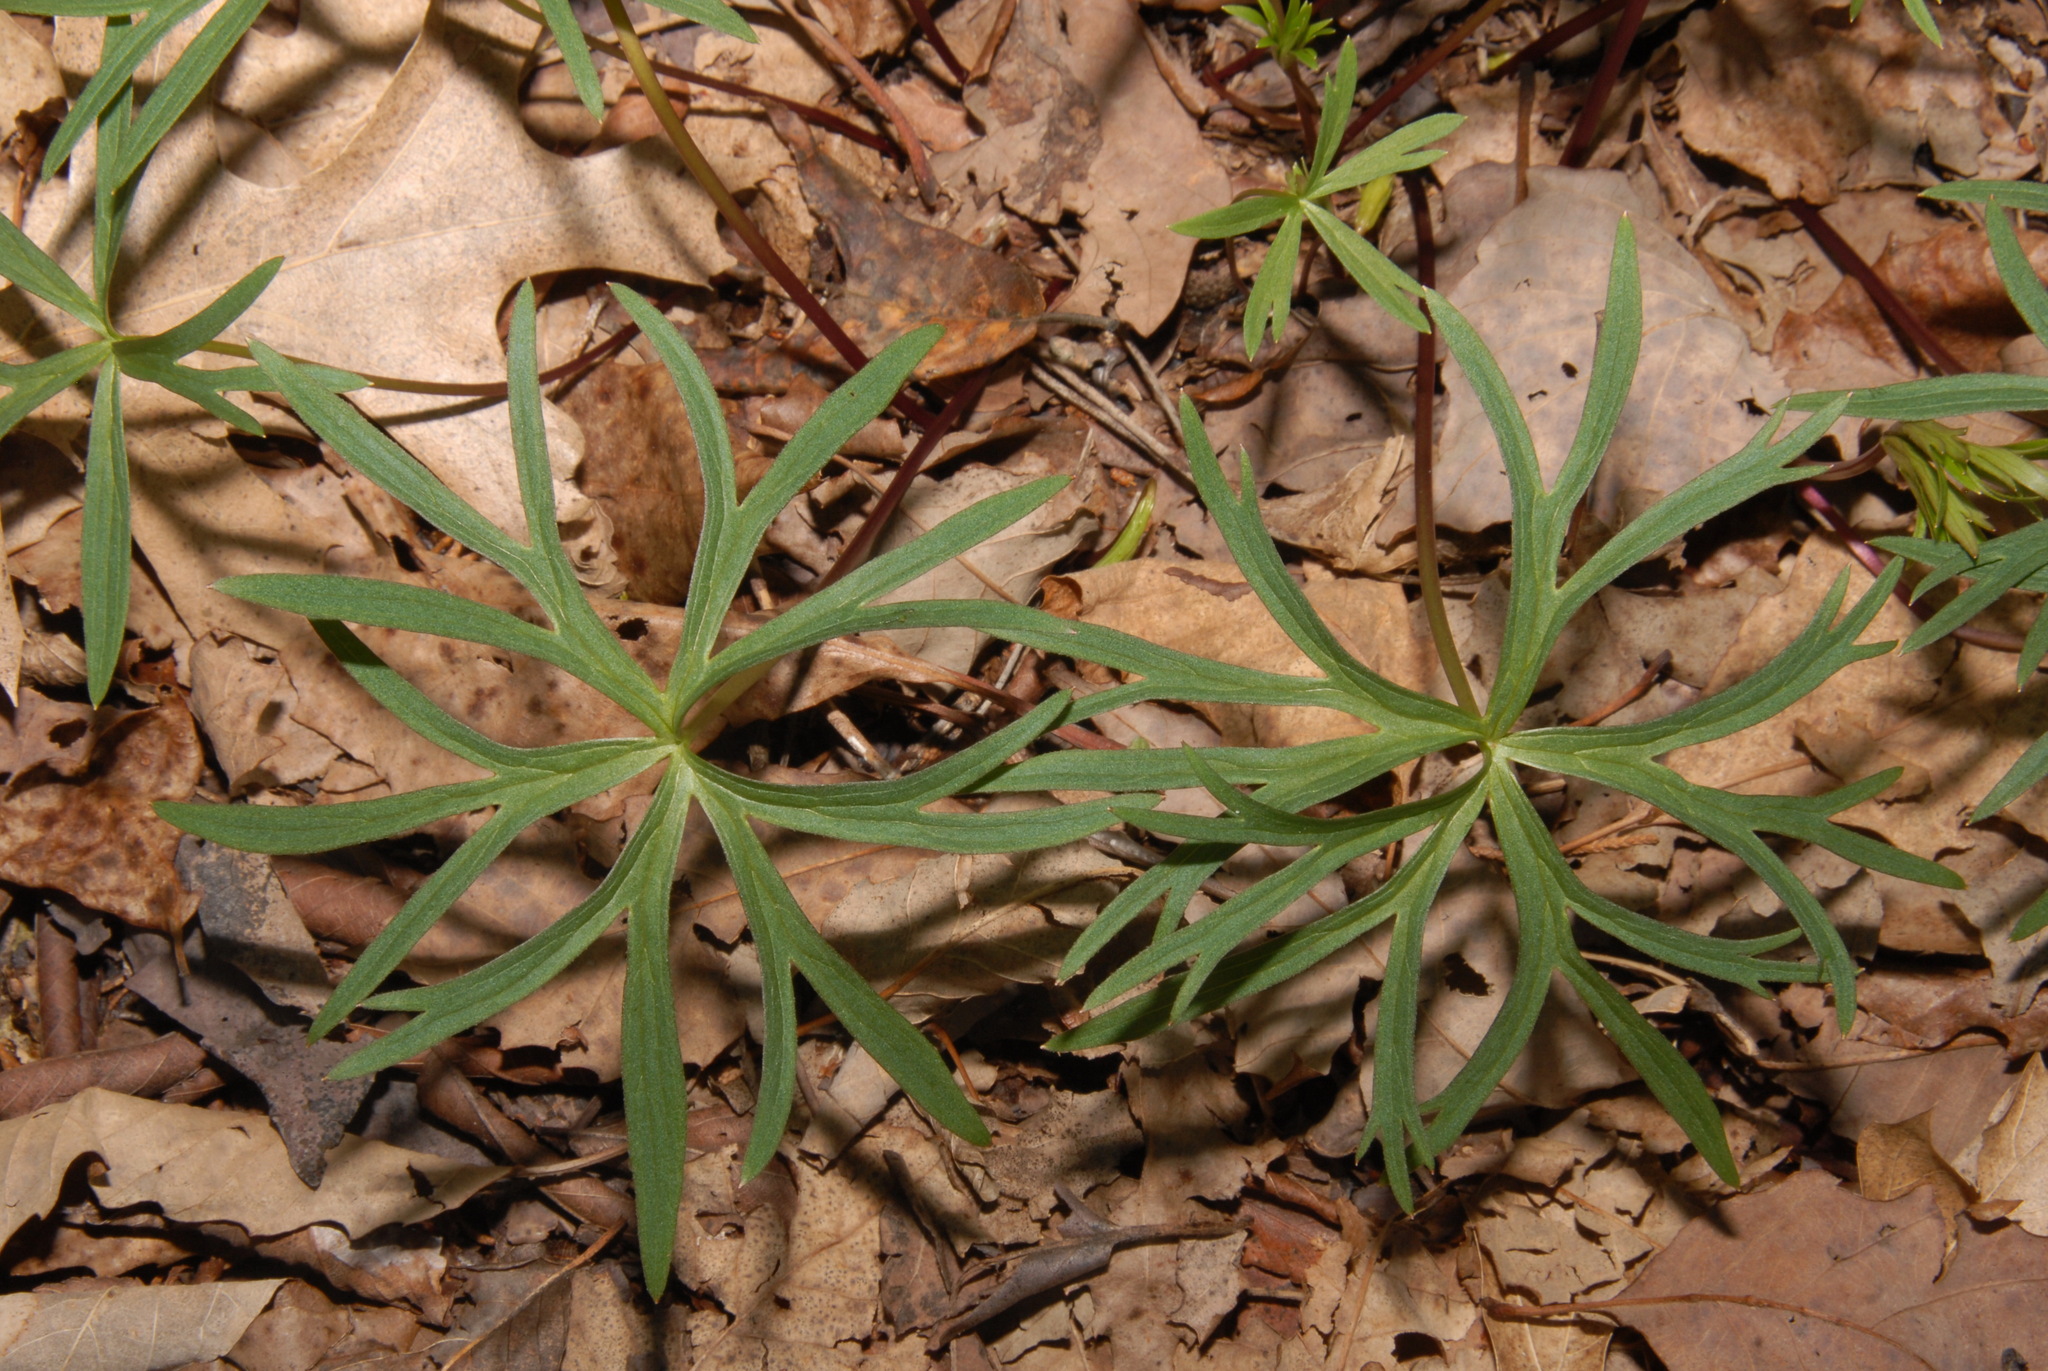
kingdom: Plantae
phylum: Tracheophyta
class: Magnoliopsida
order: Ranunculales
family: Ranunculaceae
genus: Delphinium
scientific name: Delphinium alabamicum
